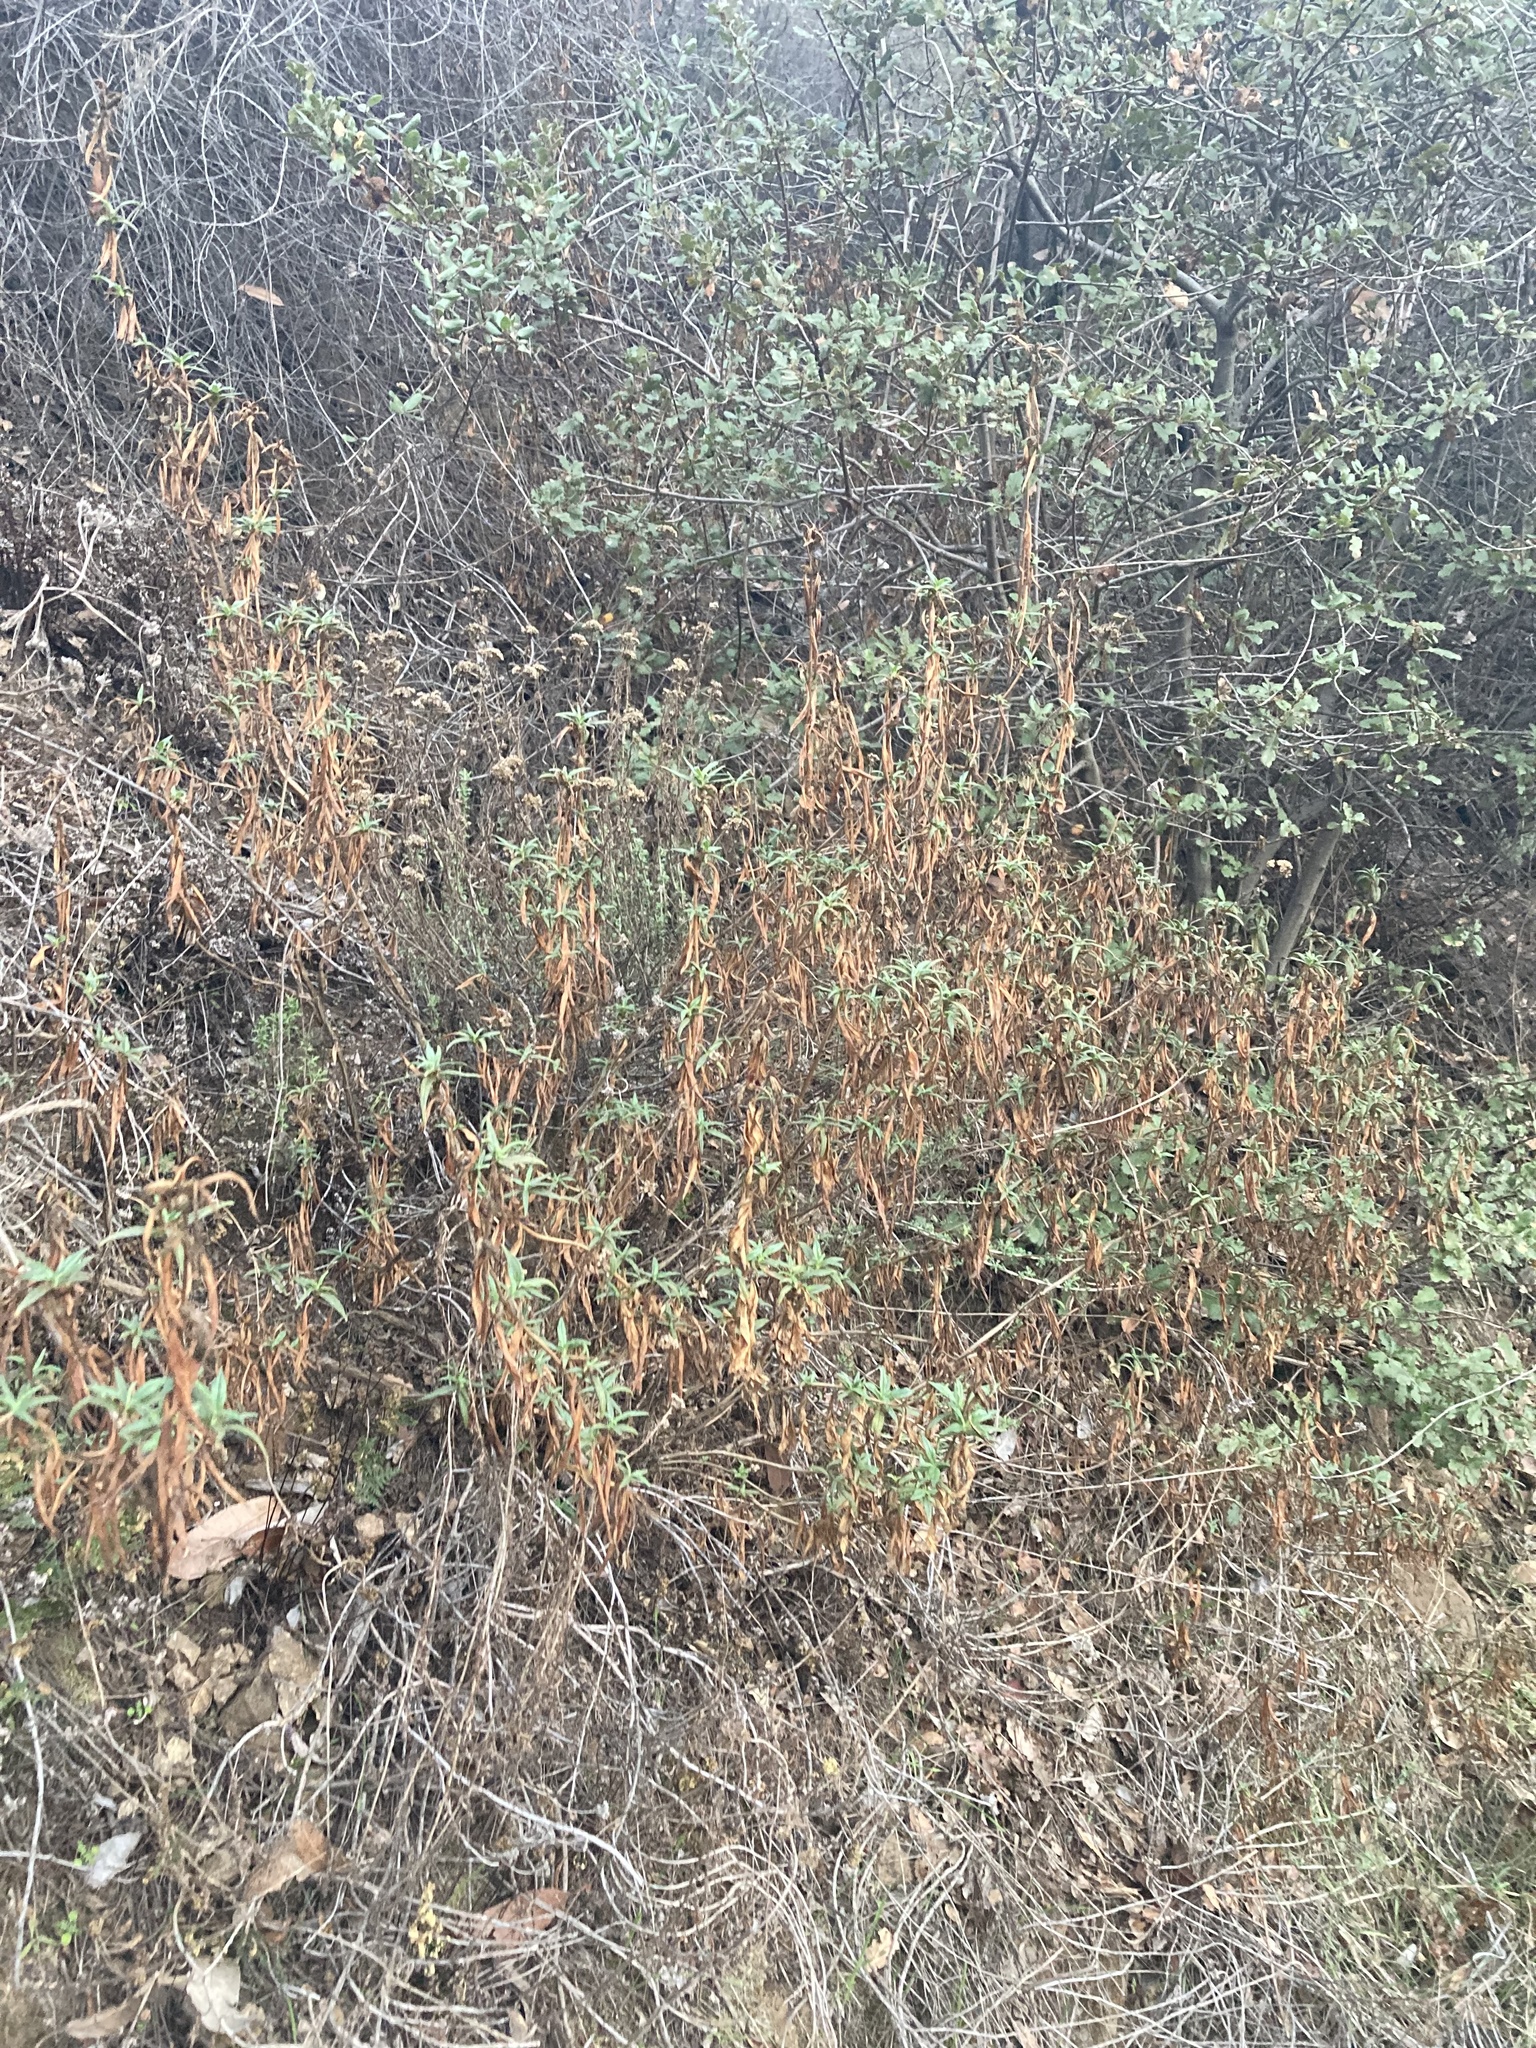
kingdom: Plantae
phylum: Tracheophyta
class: Magnoliopsida
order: Lamiales
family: Phrymaceae
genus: Diplacus
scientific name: Diplacus longiflorus
